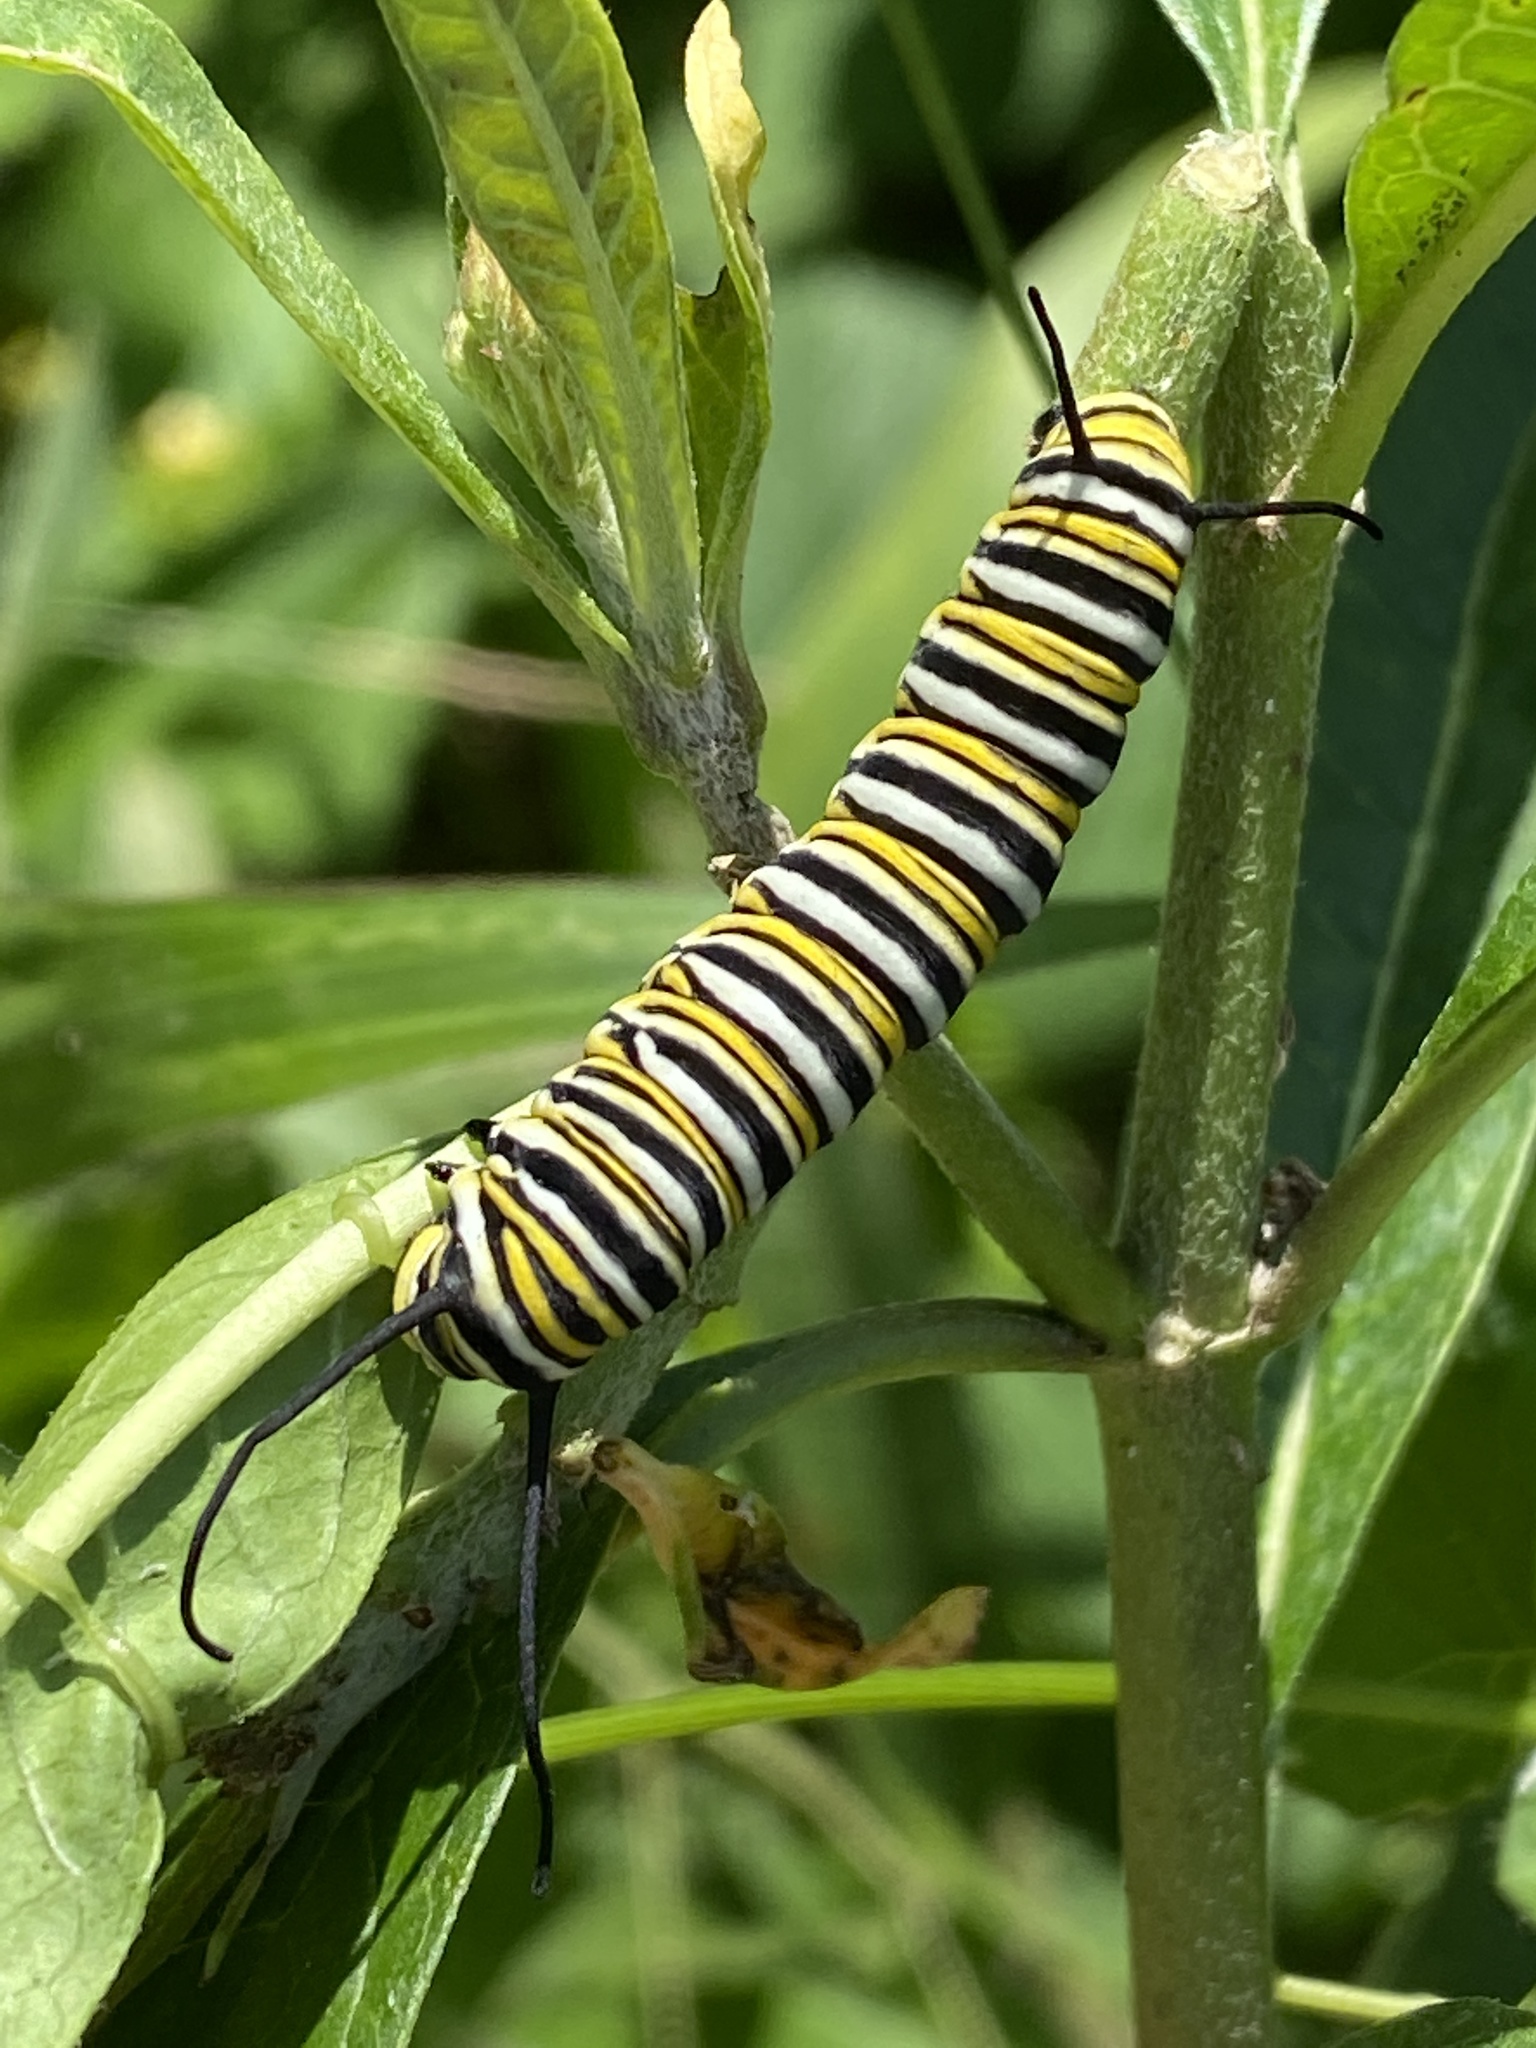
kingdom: Animalia
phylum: Arthropoda
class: Insecta
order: Lepidoptera
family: Nymphalidae
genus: Danaus
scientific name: Danaus plexippus
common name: Monarch
